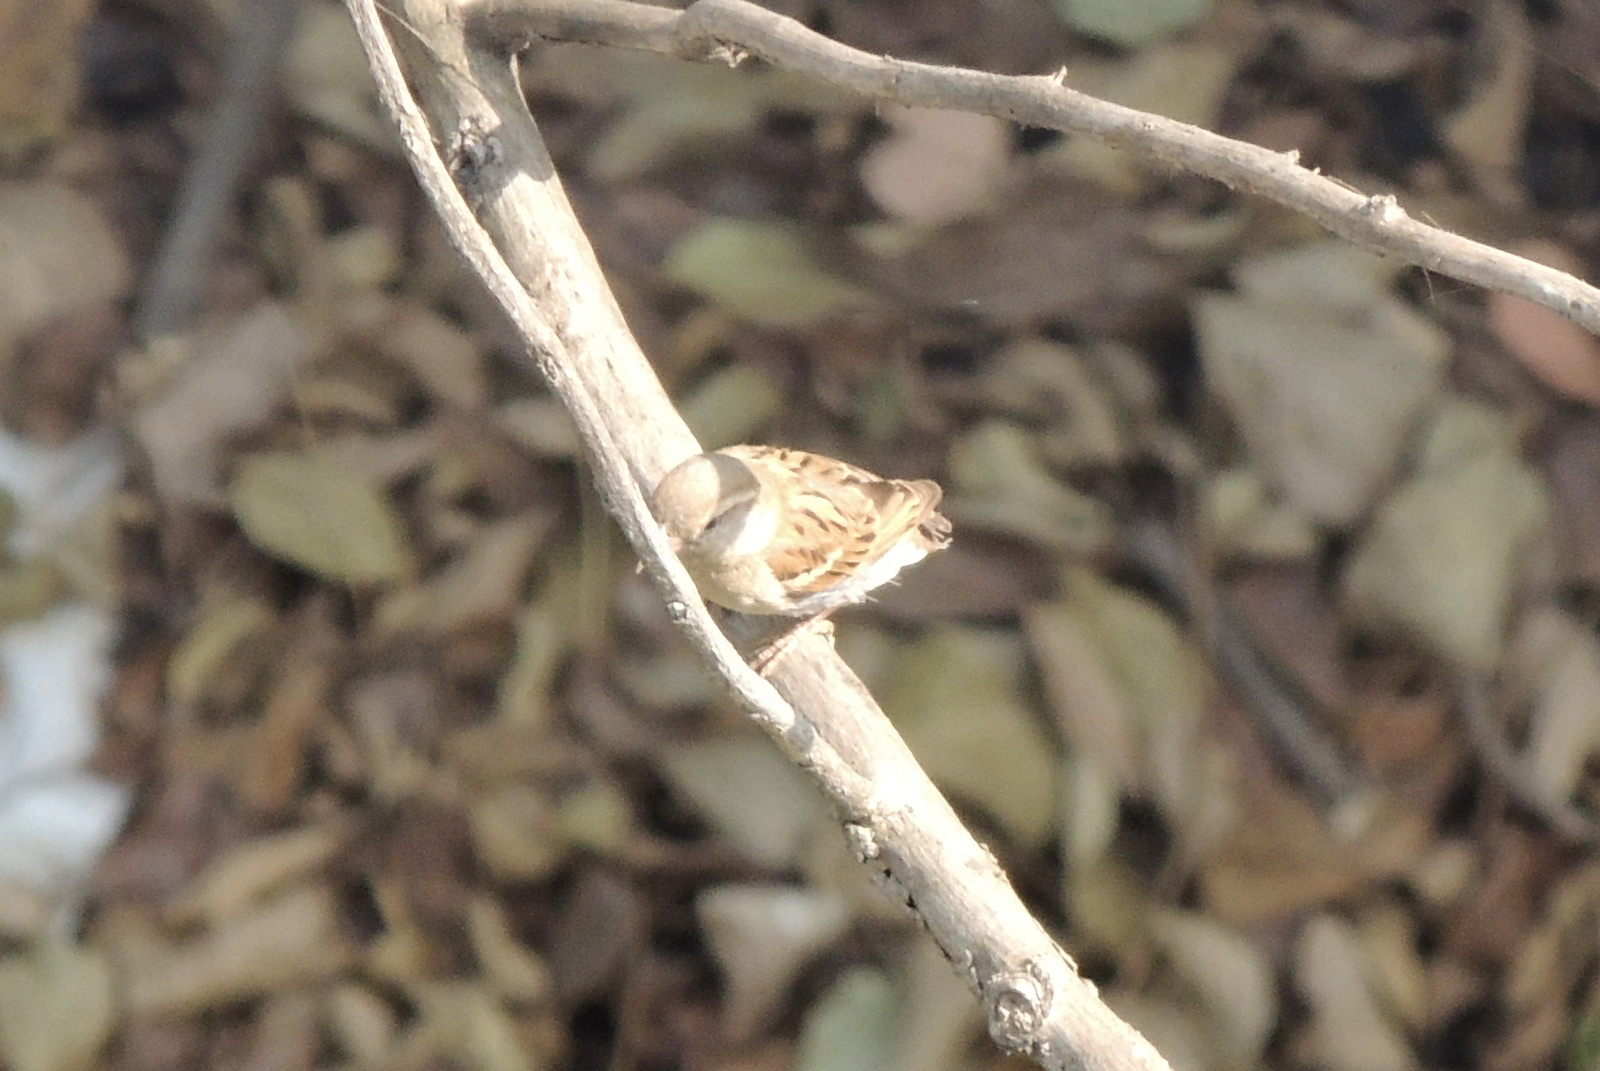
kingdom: Animalia
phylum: Chordata
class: Aves
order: Passeriformes
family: Passeridae
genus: Passer
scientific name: Passer domesticus
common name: House sparrow
